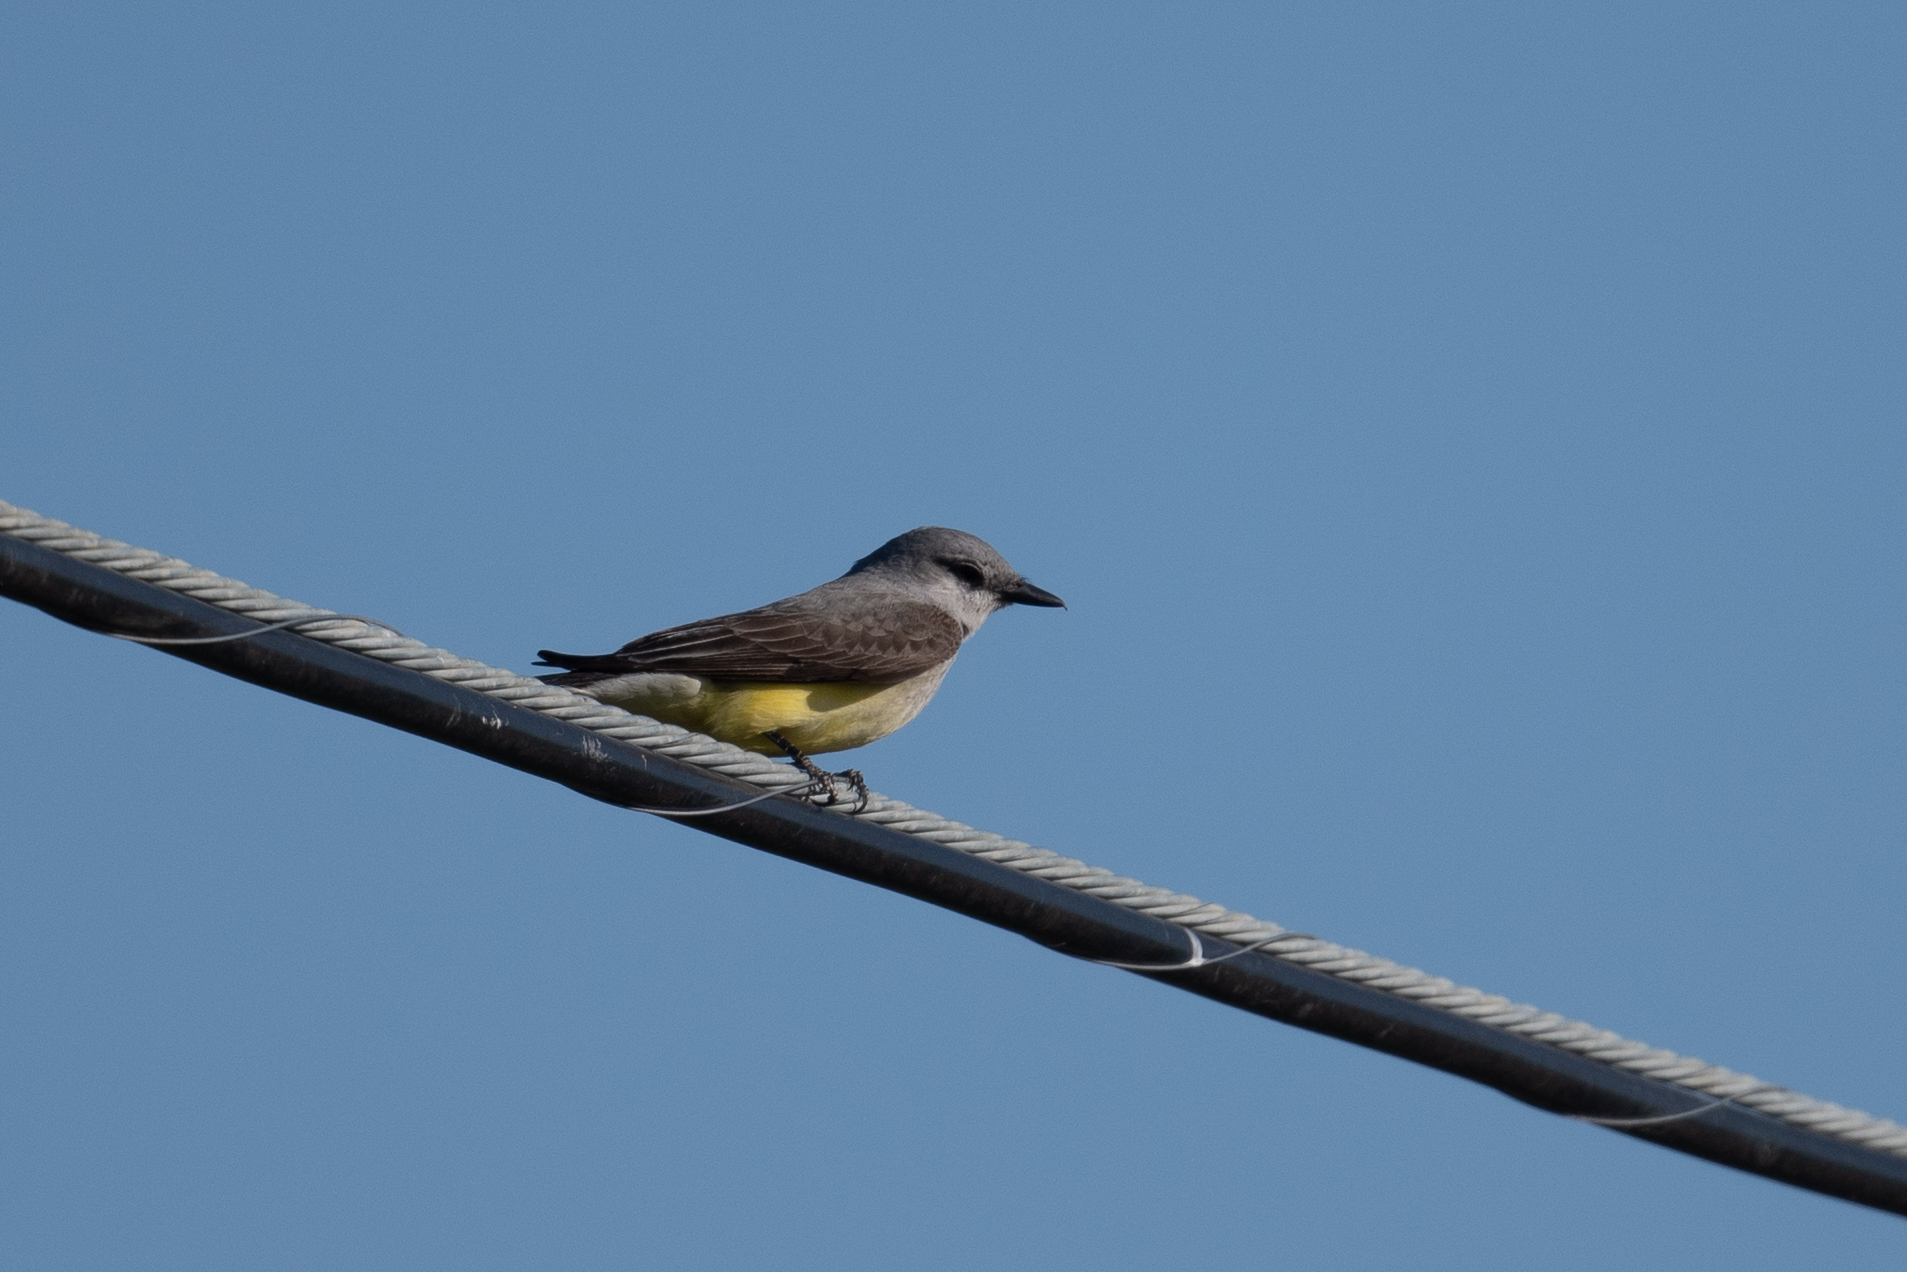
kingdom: Animalia
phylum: Chordata
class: Aves
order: Passeriformes
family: Tyrannidae
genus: Tyrannus
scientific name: Tyrannus verticalis
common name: Western kingbird
